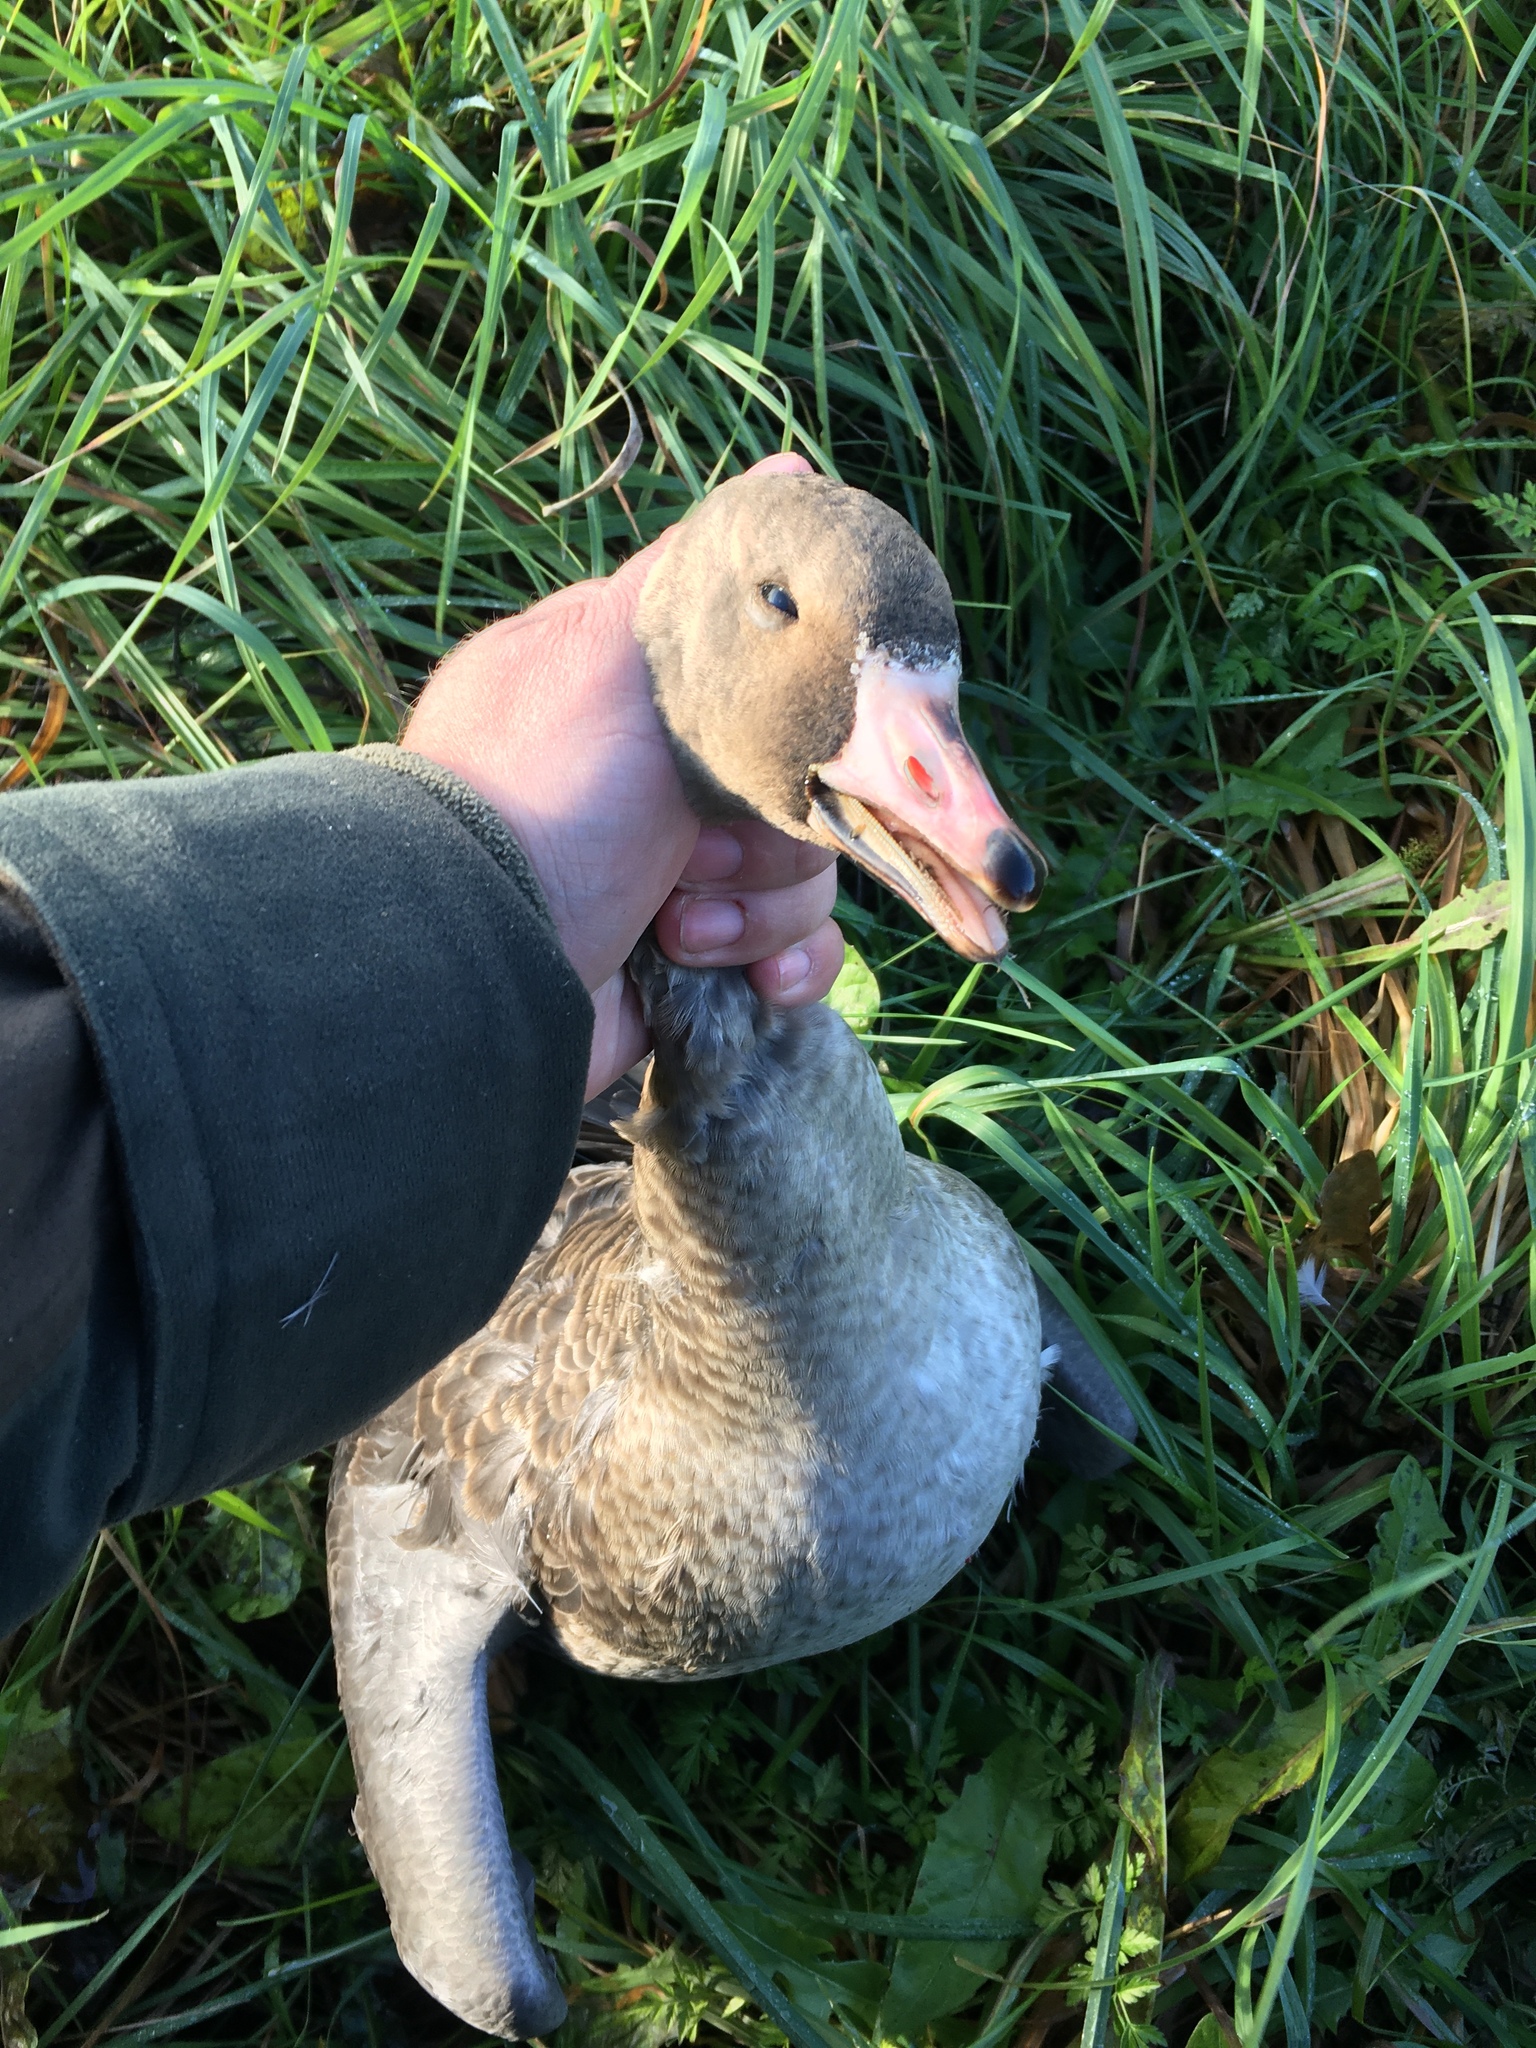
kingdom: Animalia
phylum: Chordata
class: Aves
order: Anseriformes
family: Anatidae
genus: Anser
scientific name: Anser albifrons
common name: Greater white-fronted goose
